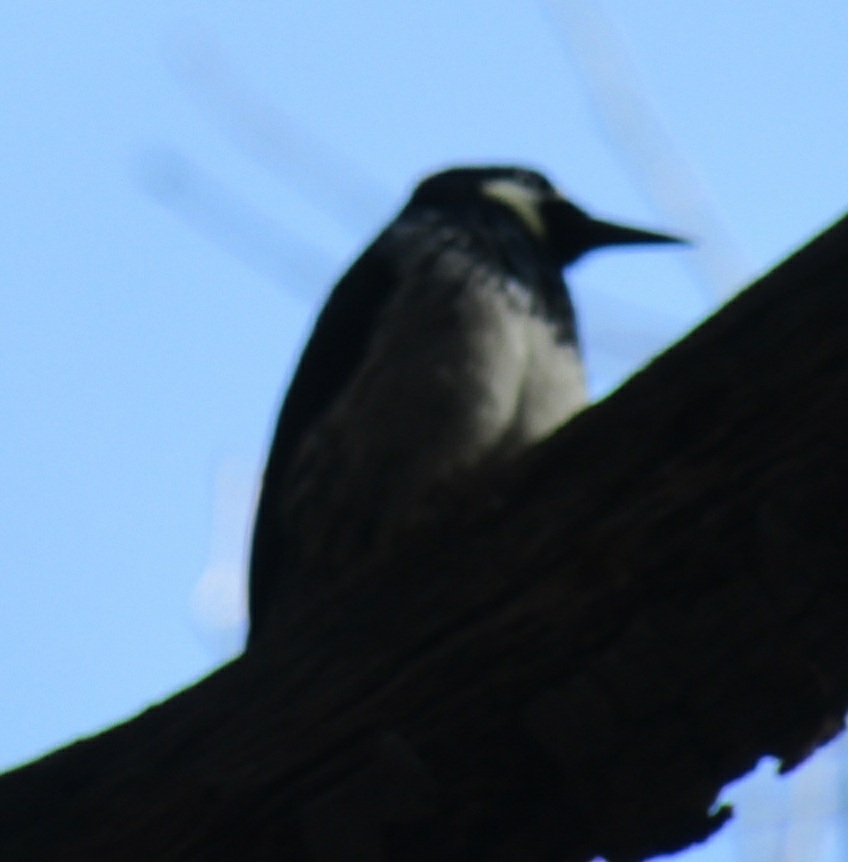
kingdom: Animalia
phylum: Chordata
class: Aves
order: Piciformes
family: Picidae
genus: Melanerpes
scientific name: Melanerpes formicivorus
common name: Acorn woodpecker
